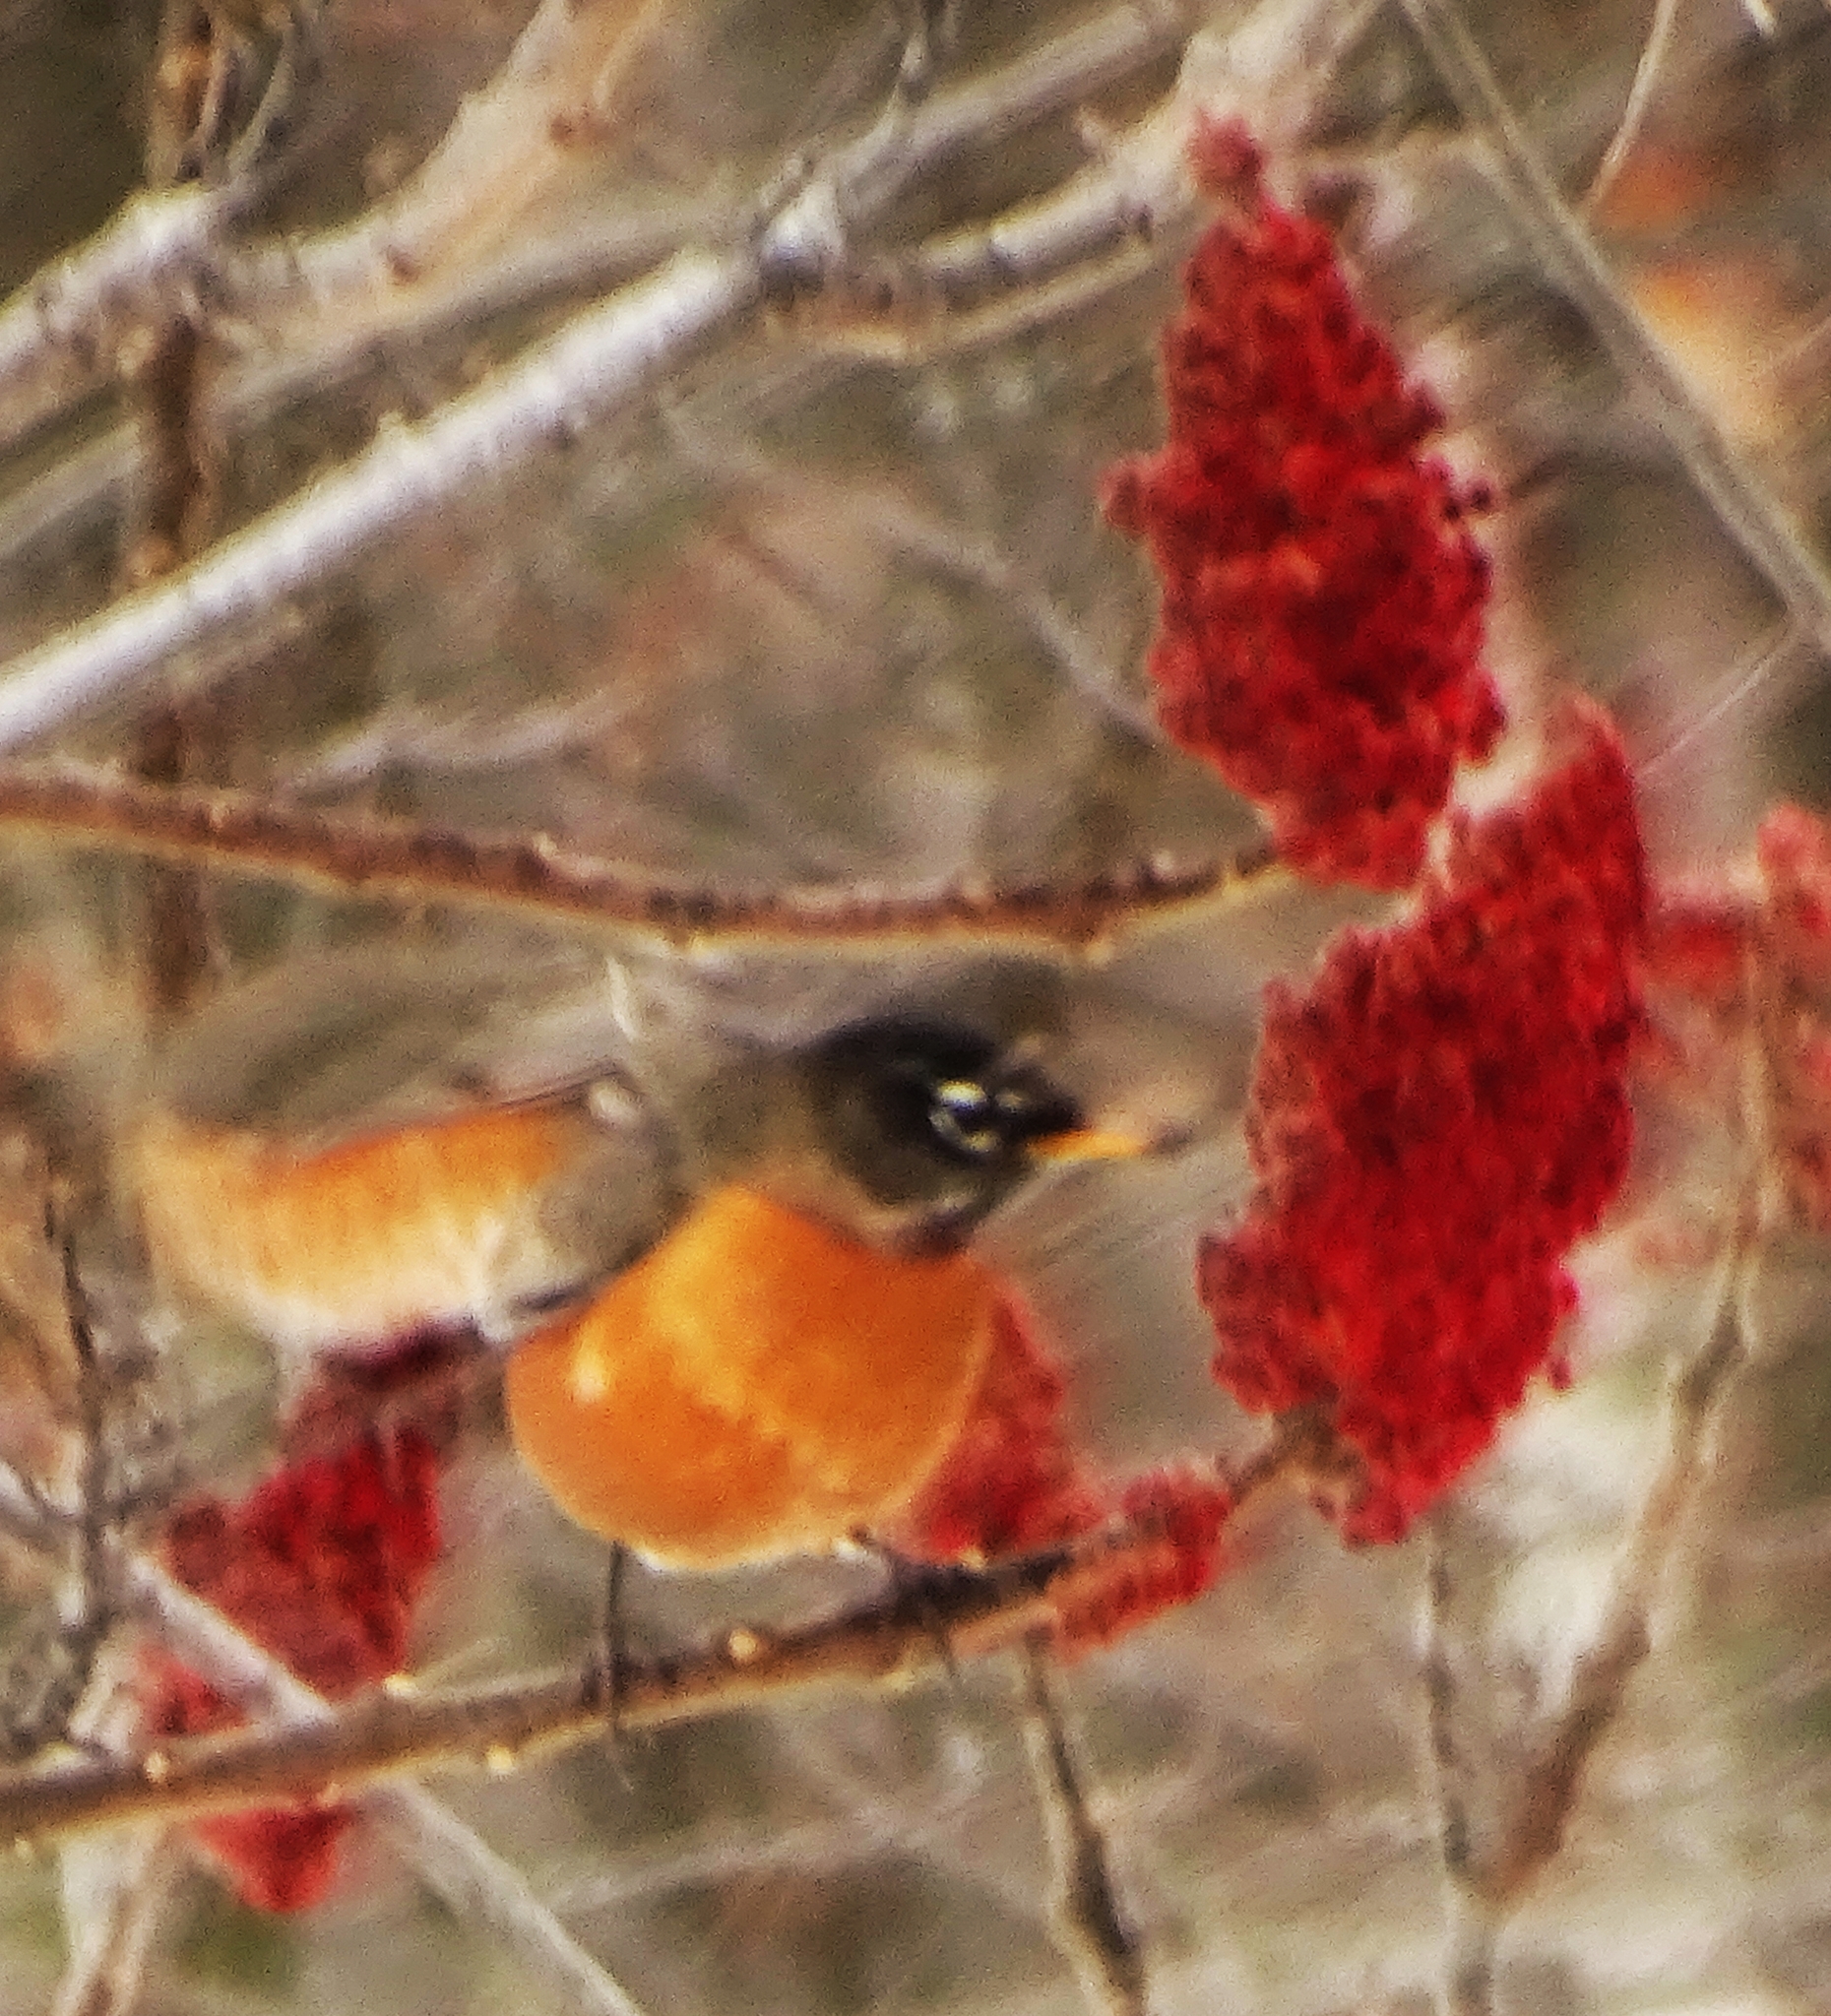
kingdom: Animalia
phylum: Chordata
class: Aves
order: Passeriformes
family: Turdidae
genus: Turdus
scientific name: Turdus migratorius
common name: American robin
